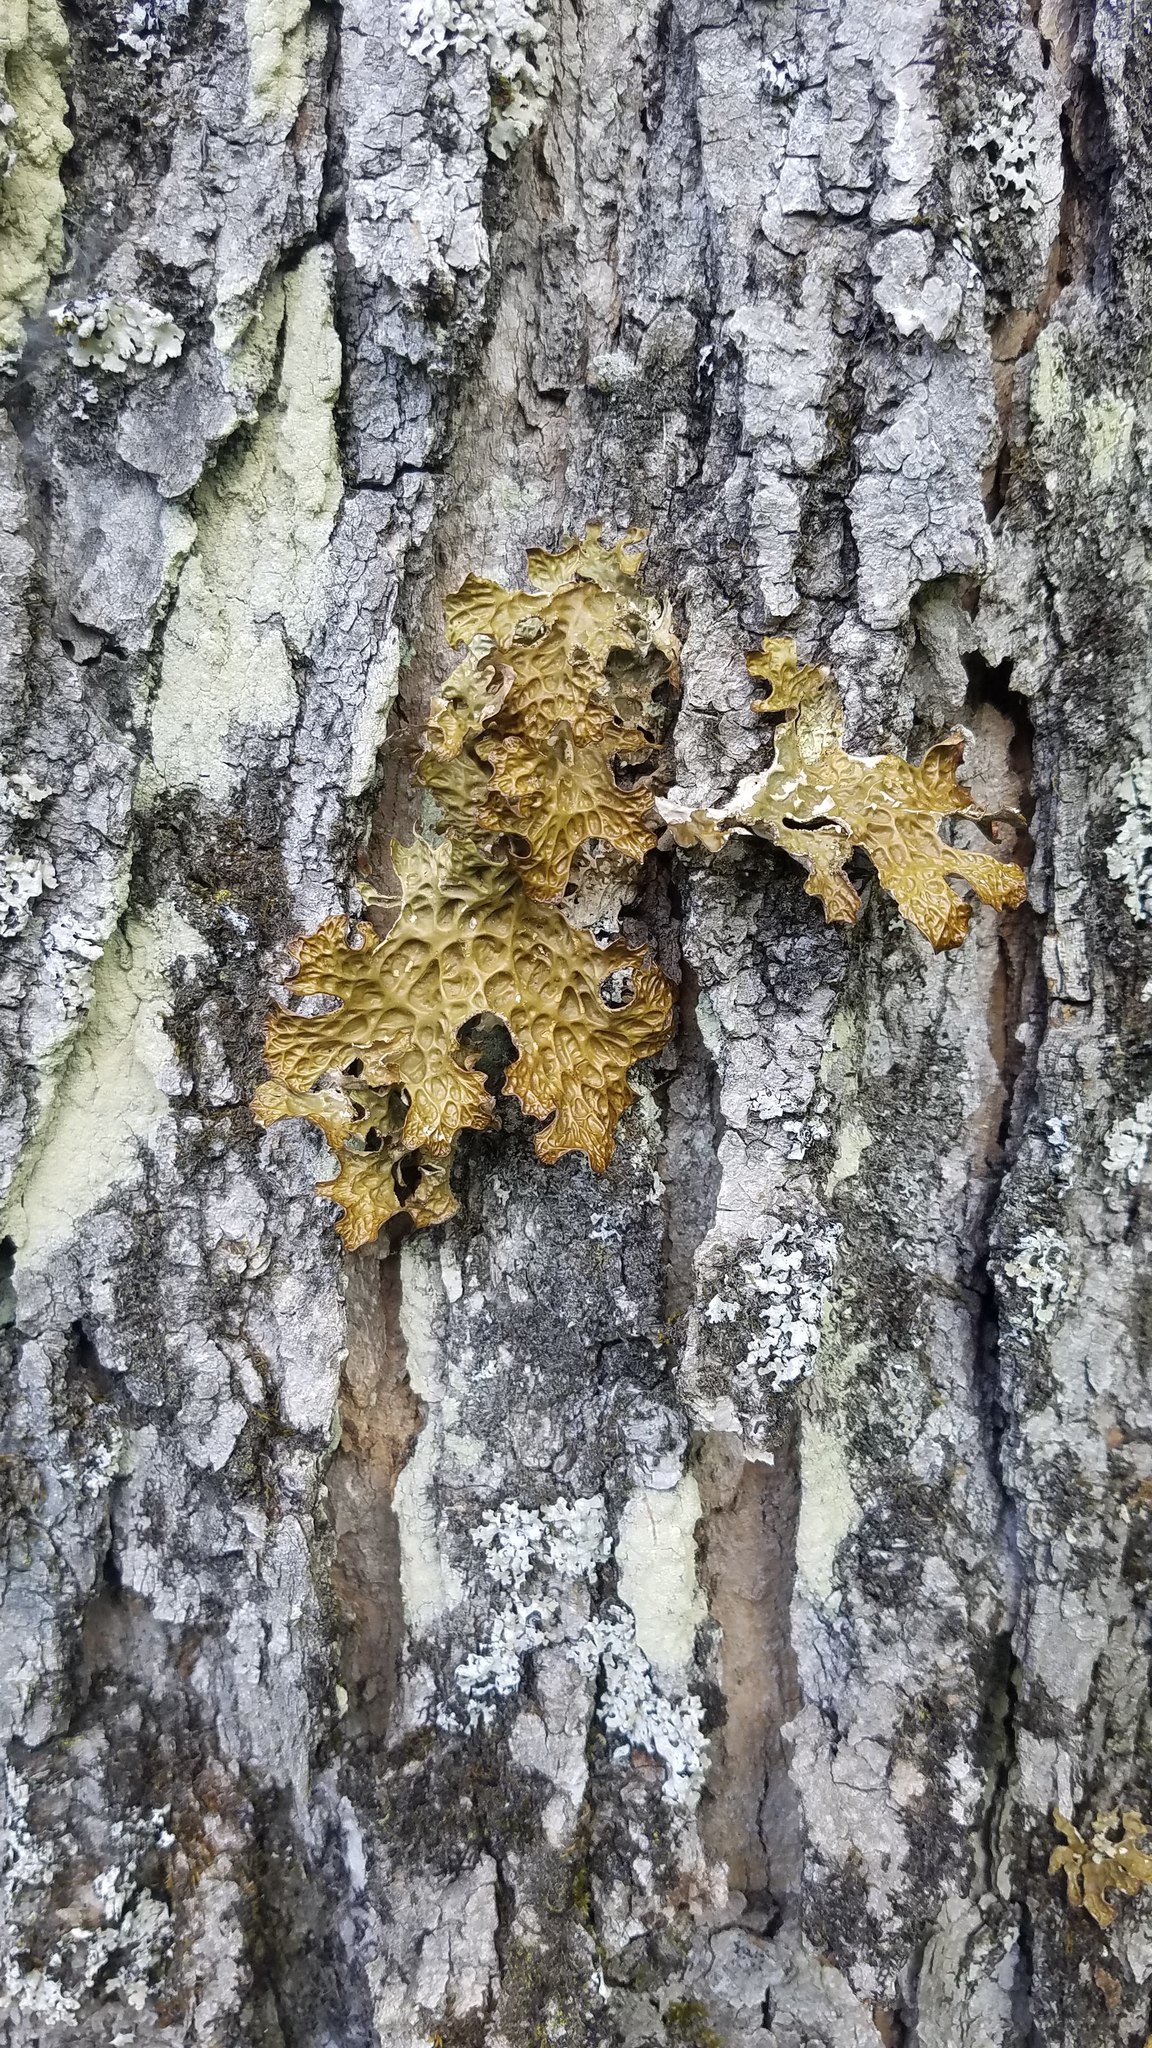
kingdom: Fungi
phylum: Ascomycota
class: Lecanoromycetes
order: Peltigerales
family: Lobariaceae
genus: Lobaria
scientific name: Lobaria pulmonaria
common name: Lungwort
